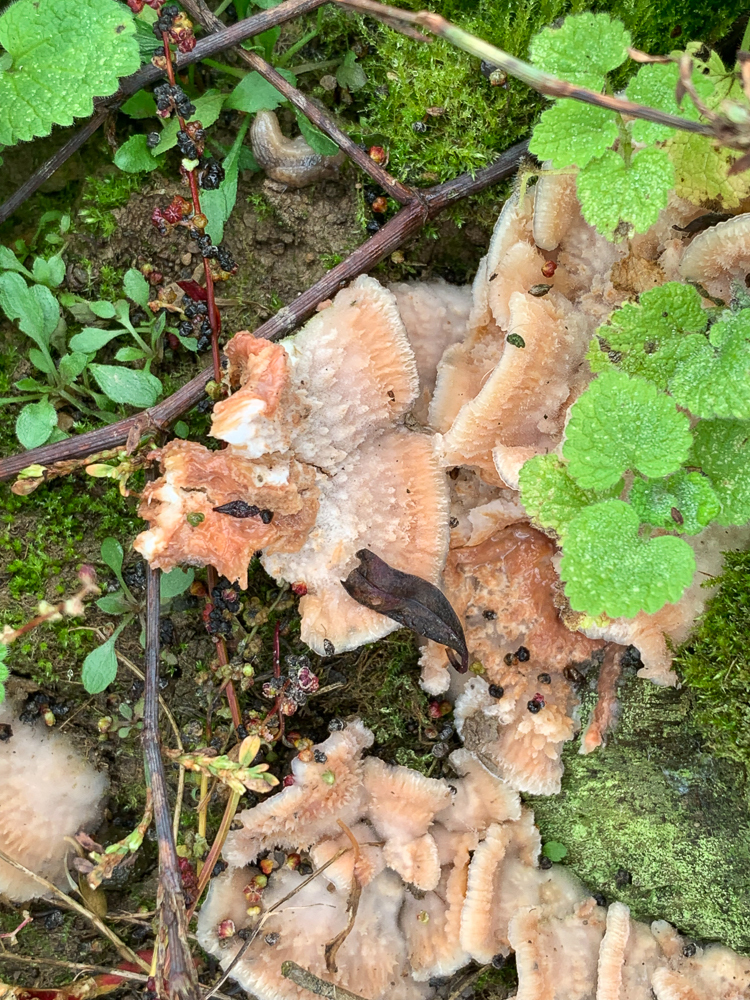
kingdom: Fungi
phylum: Basidiomycota
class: Agaricomycetes
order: Polyporales
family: Meruliaceae
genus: Phlebia
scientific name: Phlebia tremellosa
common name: Jelly rot
